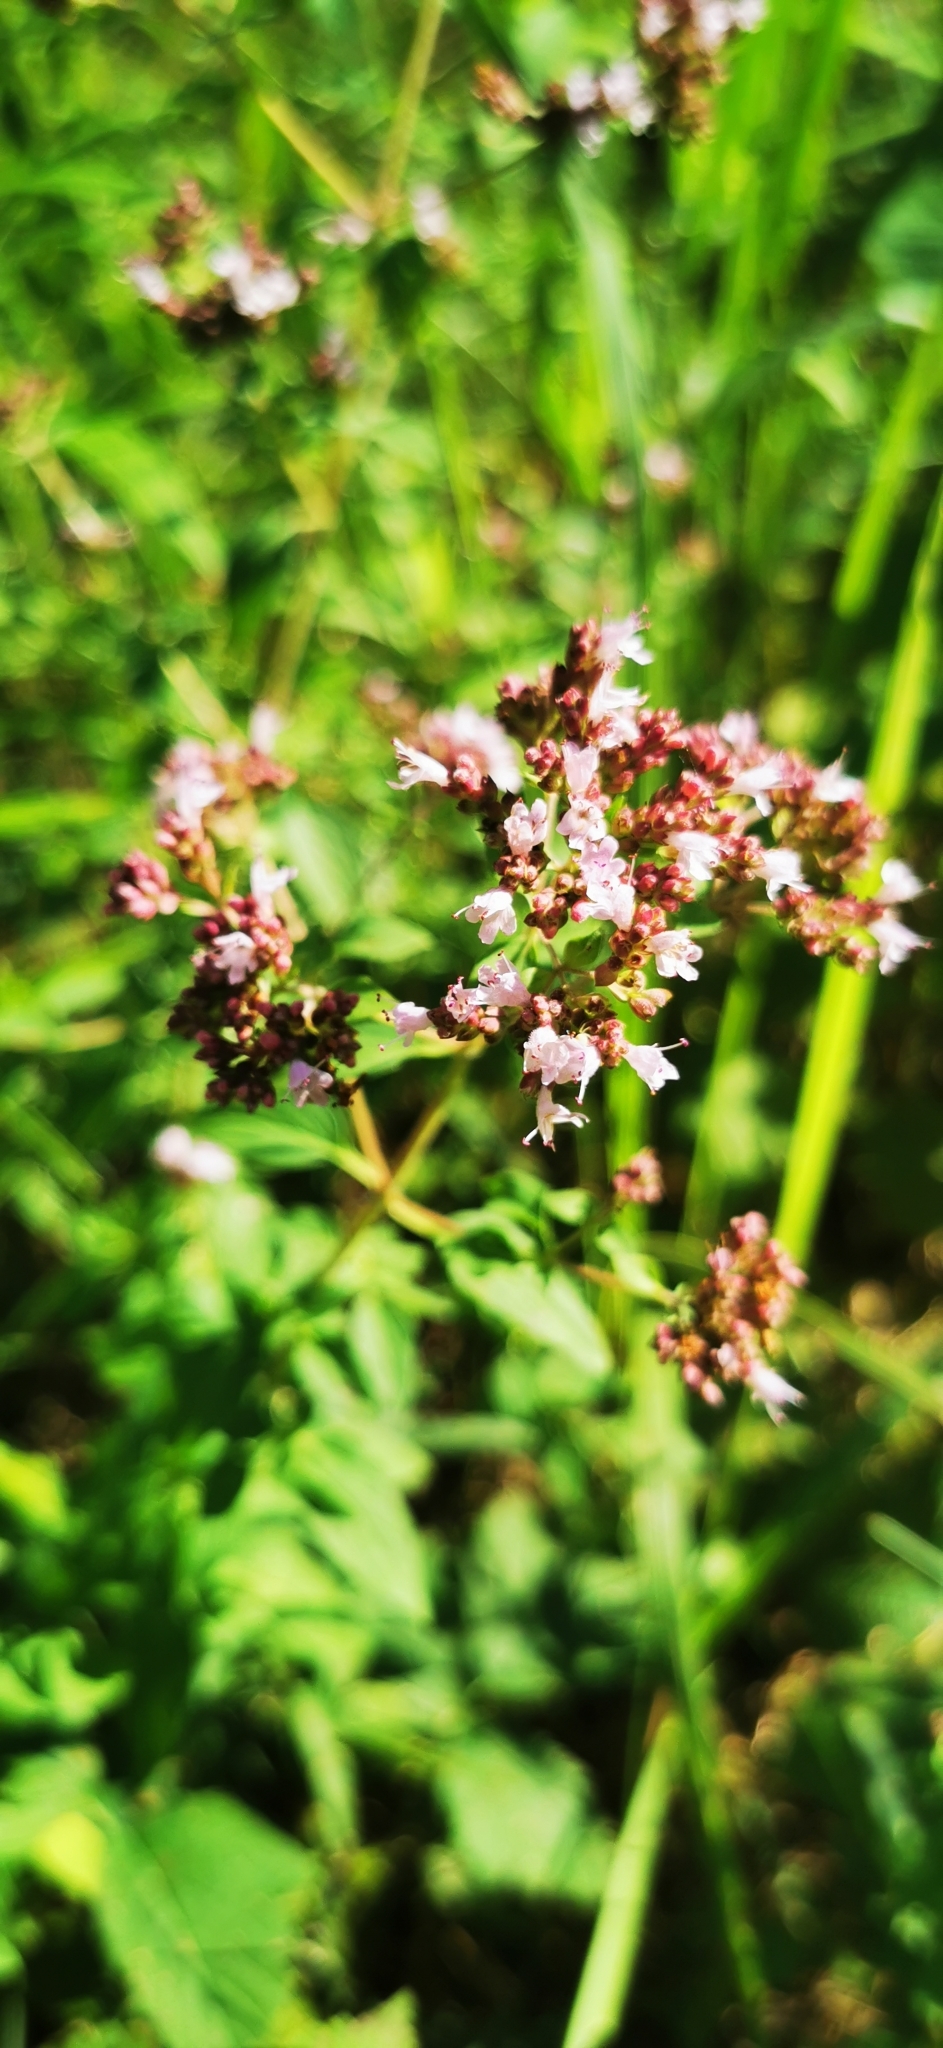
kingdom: Plantae
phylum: Tracheophyta
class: Magnoliopsida
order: Lamiales
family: Lamiaceae
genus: Origanum
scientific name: Origanum vulgare
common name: Wild marjoram
